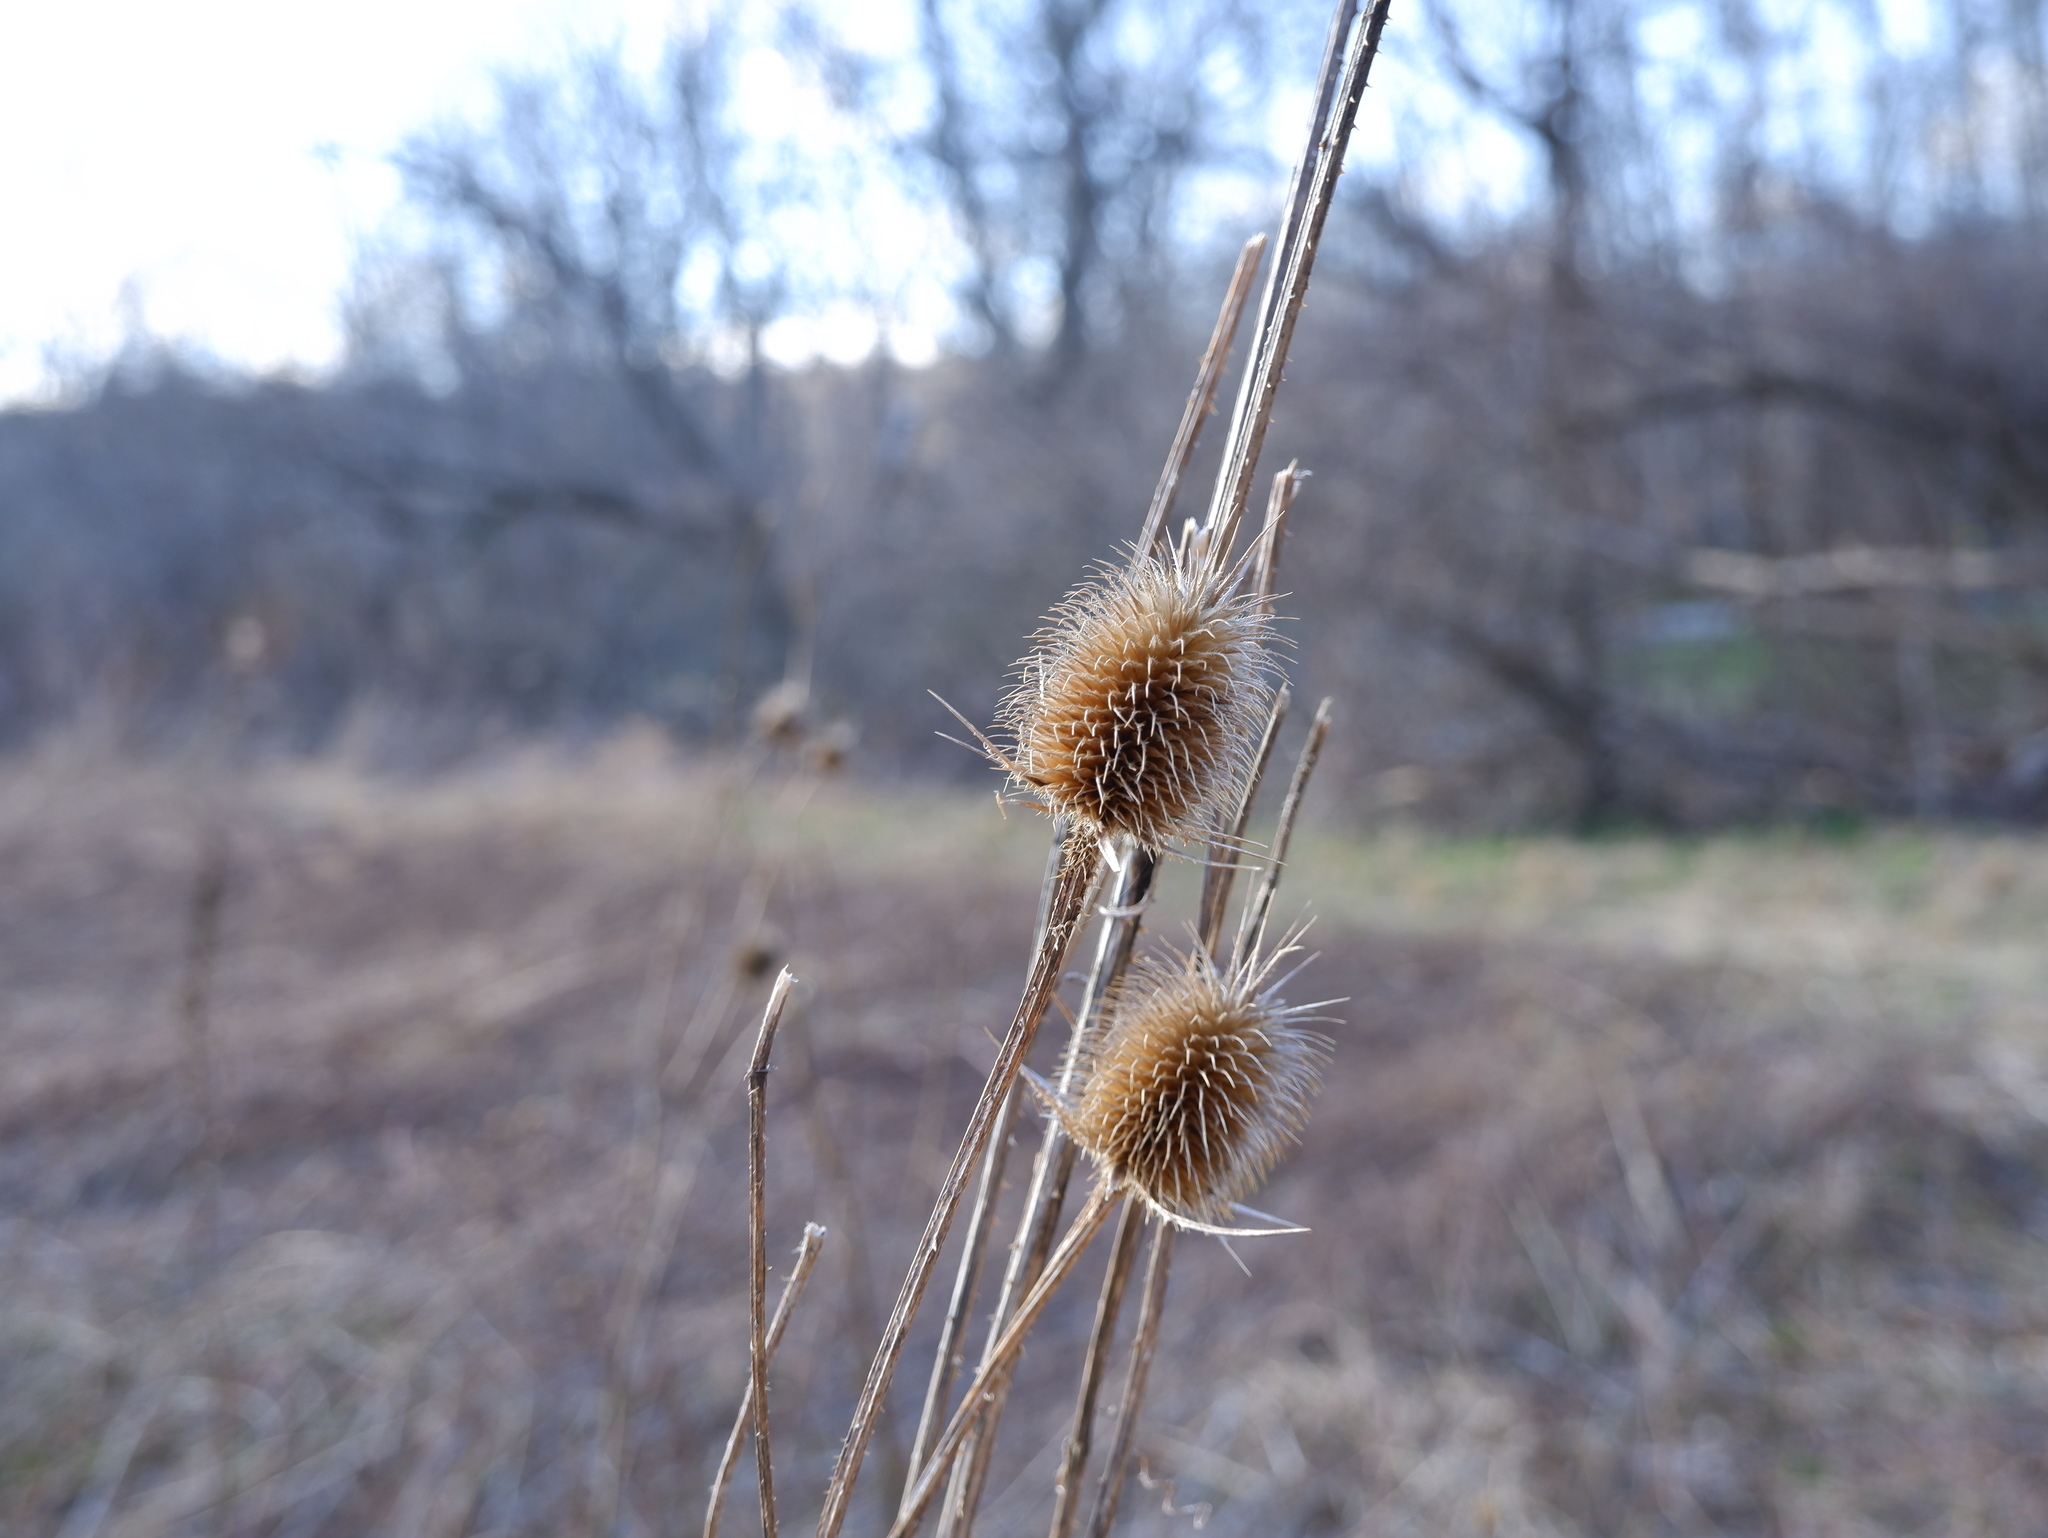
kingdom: Plantae
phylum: Tracheophyta
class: Magnoliopsida
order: Dipsacales
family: Caprifoliaceae
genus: Dipsacus
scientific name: Dipsacus laciniatus
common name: Cut-leaved teasel
